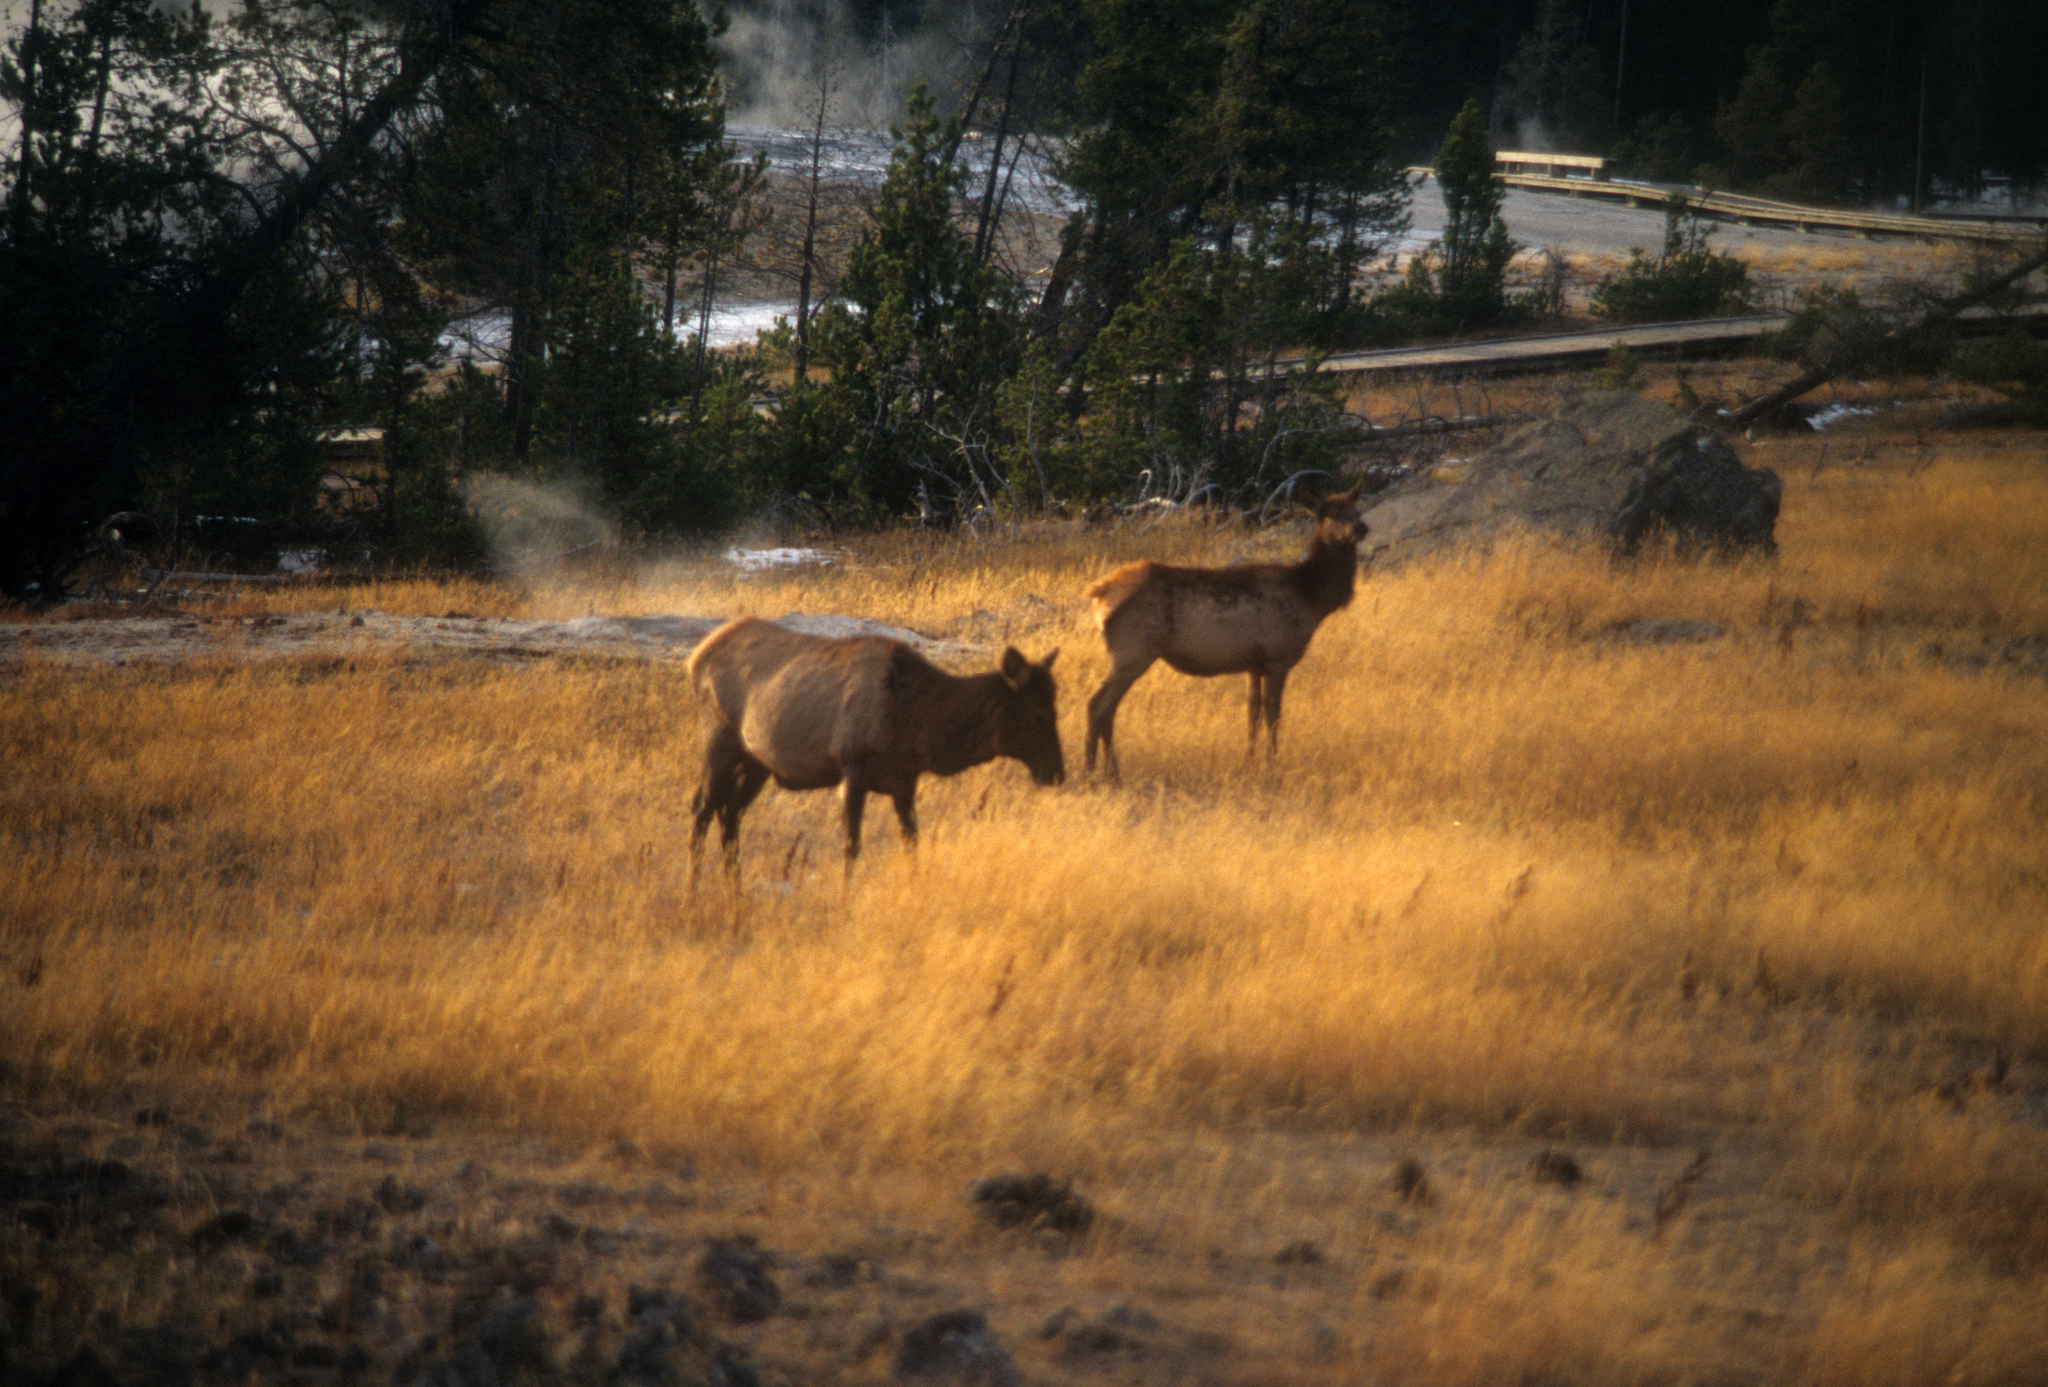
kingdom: Animalia
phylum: Chordata
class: Mammalia
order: Artiodactyla
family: Cervidae
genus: Cervus
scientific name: Cervus elaphus
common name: Red deer
